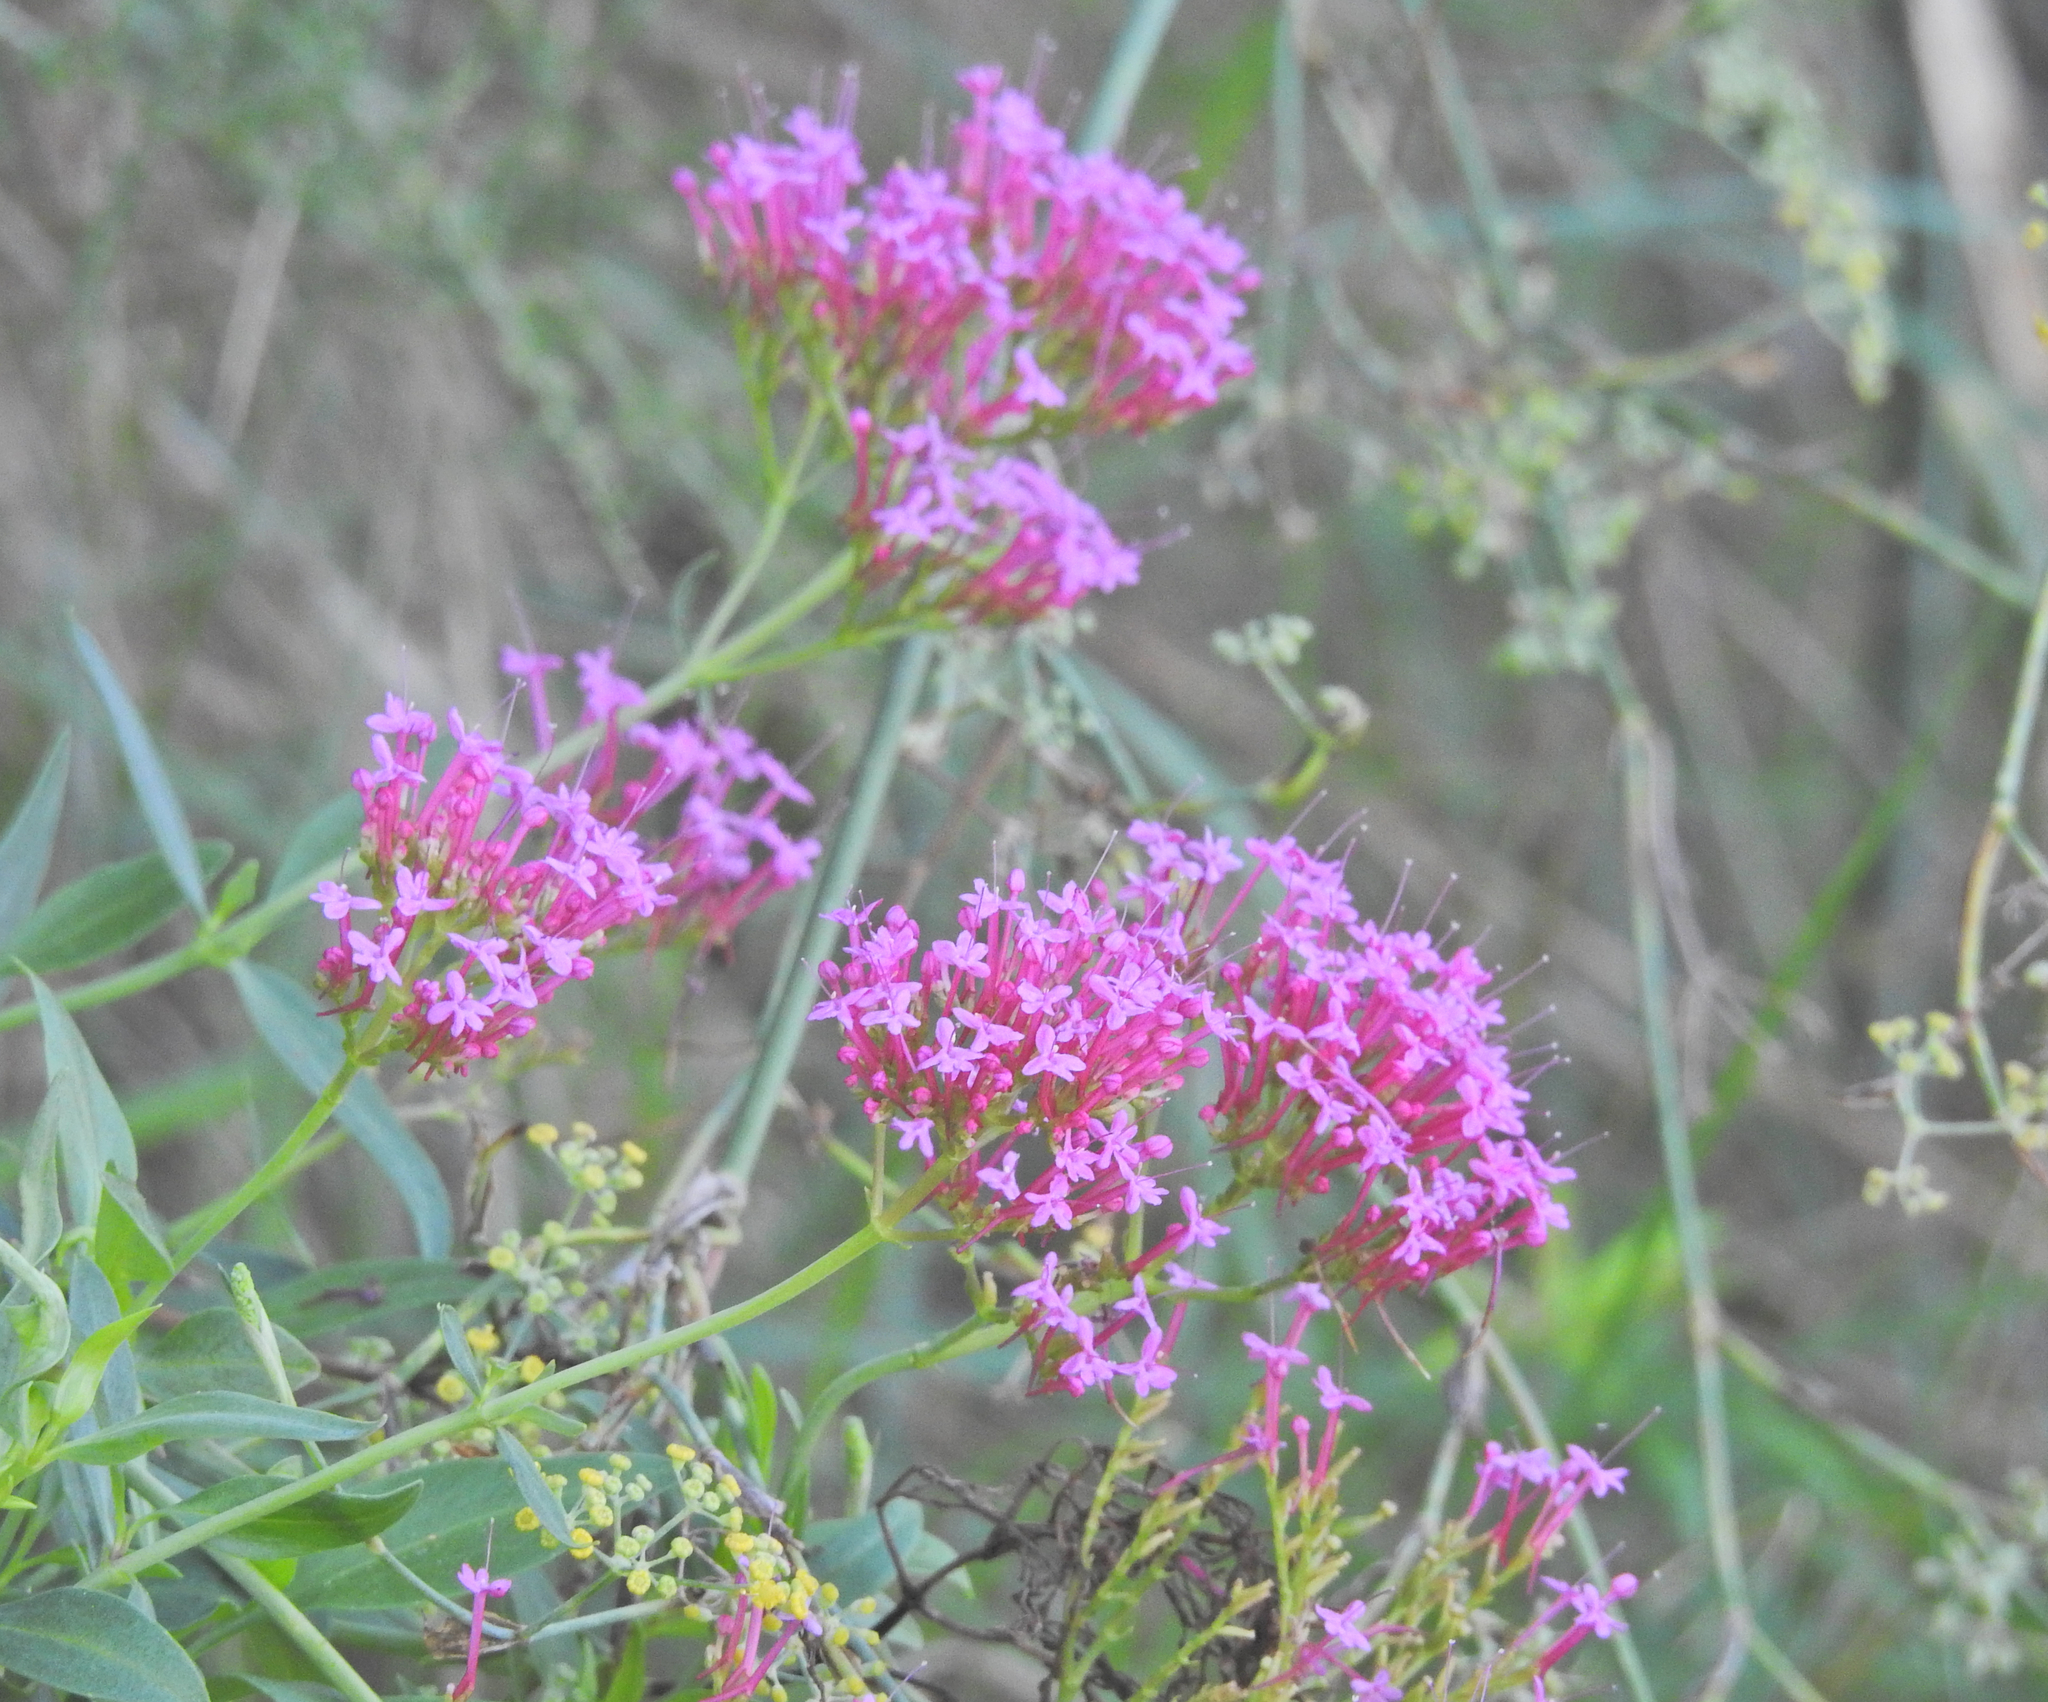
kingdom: Plantae
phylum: Tracheophyta
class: Magnoliopsida
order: Dipsacales
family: Caprifoliaceae
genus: Centranthus
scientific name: Centranthus ruber
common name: Red valerian
